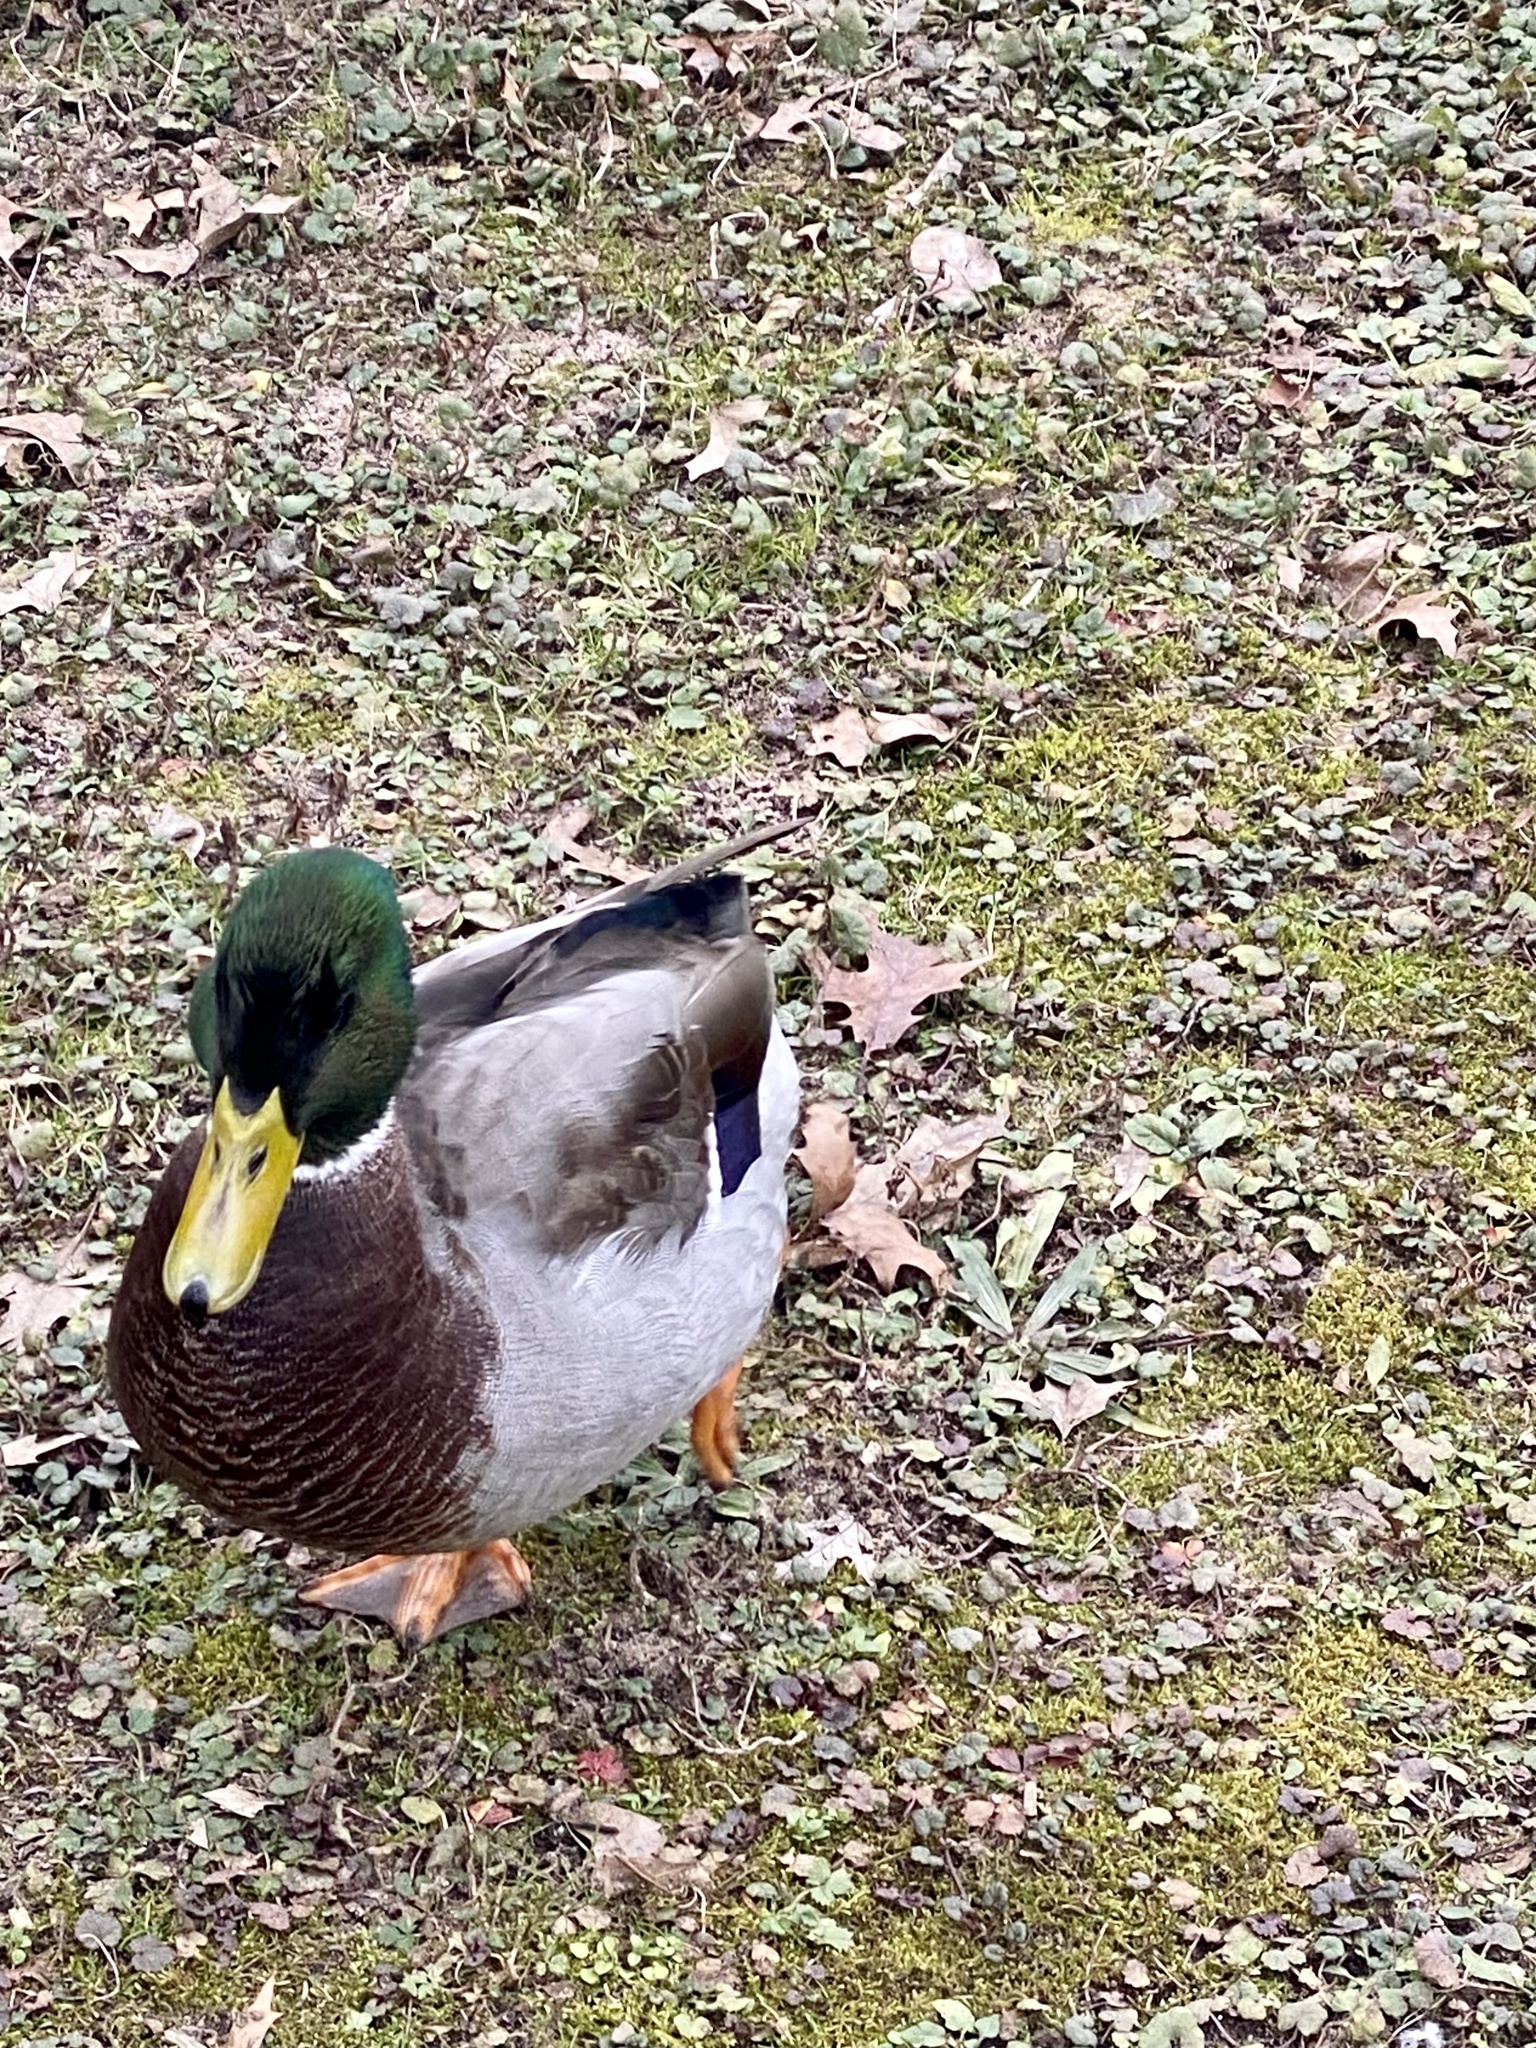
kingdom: Animalia
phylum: Chordata
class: Aves
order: Anseriformes
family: Anatidae
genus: Anas
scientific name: Anas platyrhynchos
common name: Mallard
